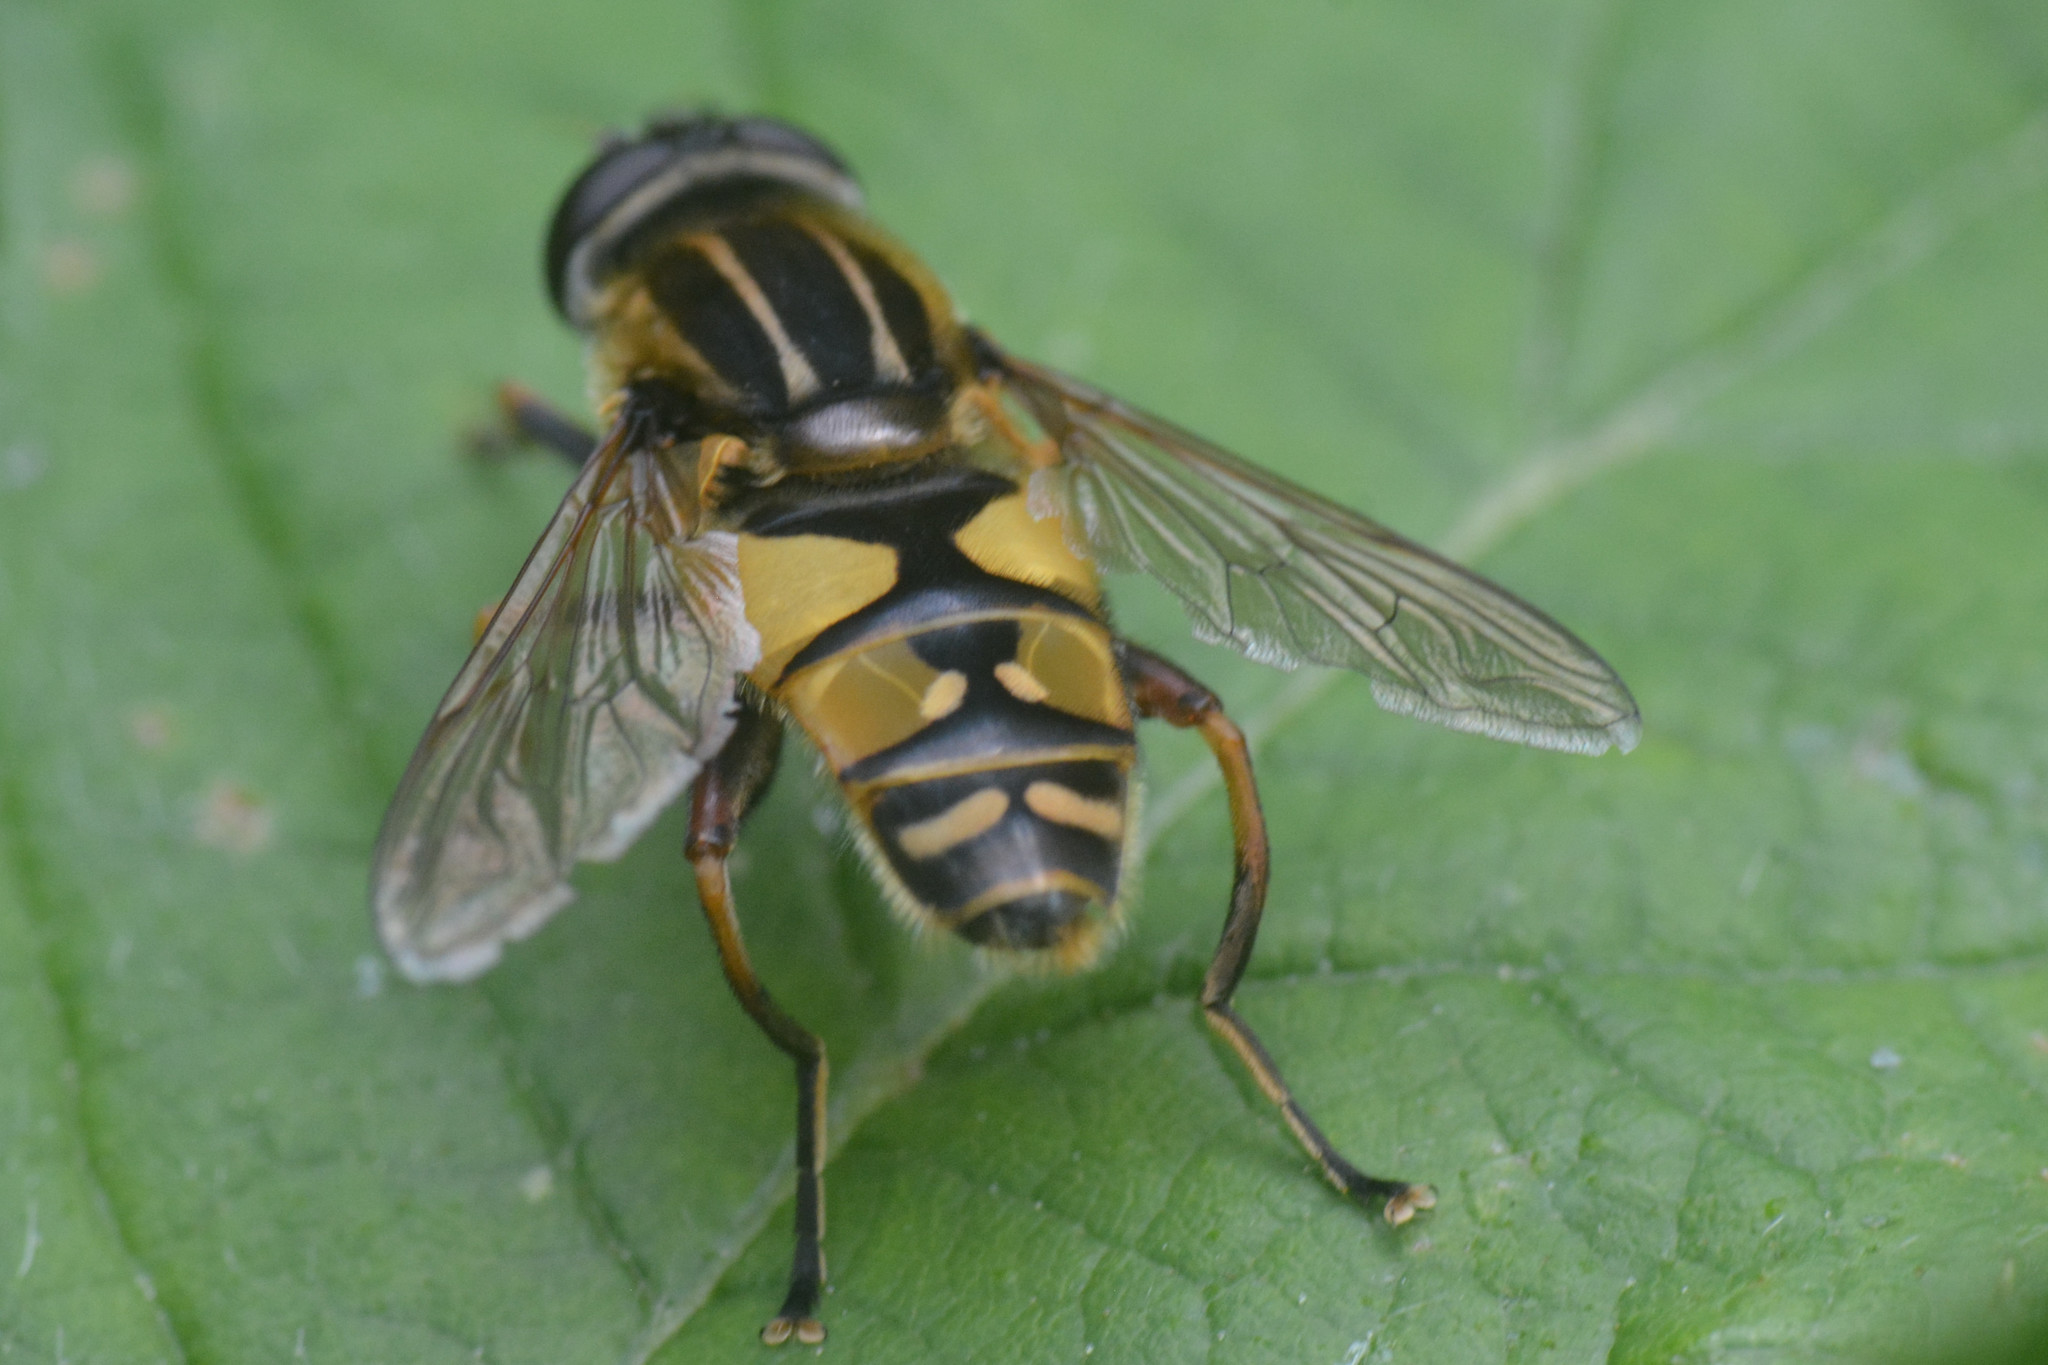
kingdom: Animalia
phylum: Arthropoda
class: Insecta
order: Diptera
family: Syrphidae
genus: Helophilus
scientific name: Helophilus pendulus
